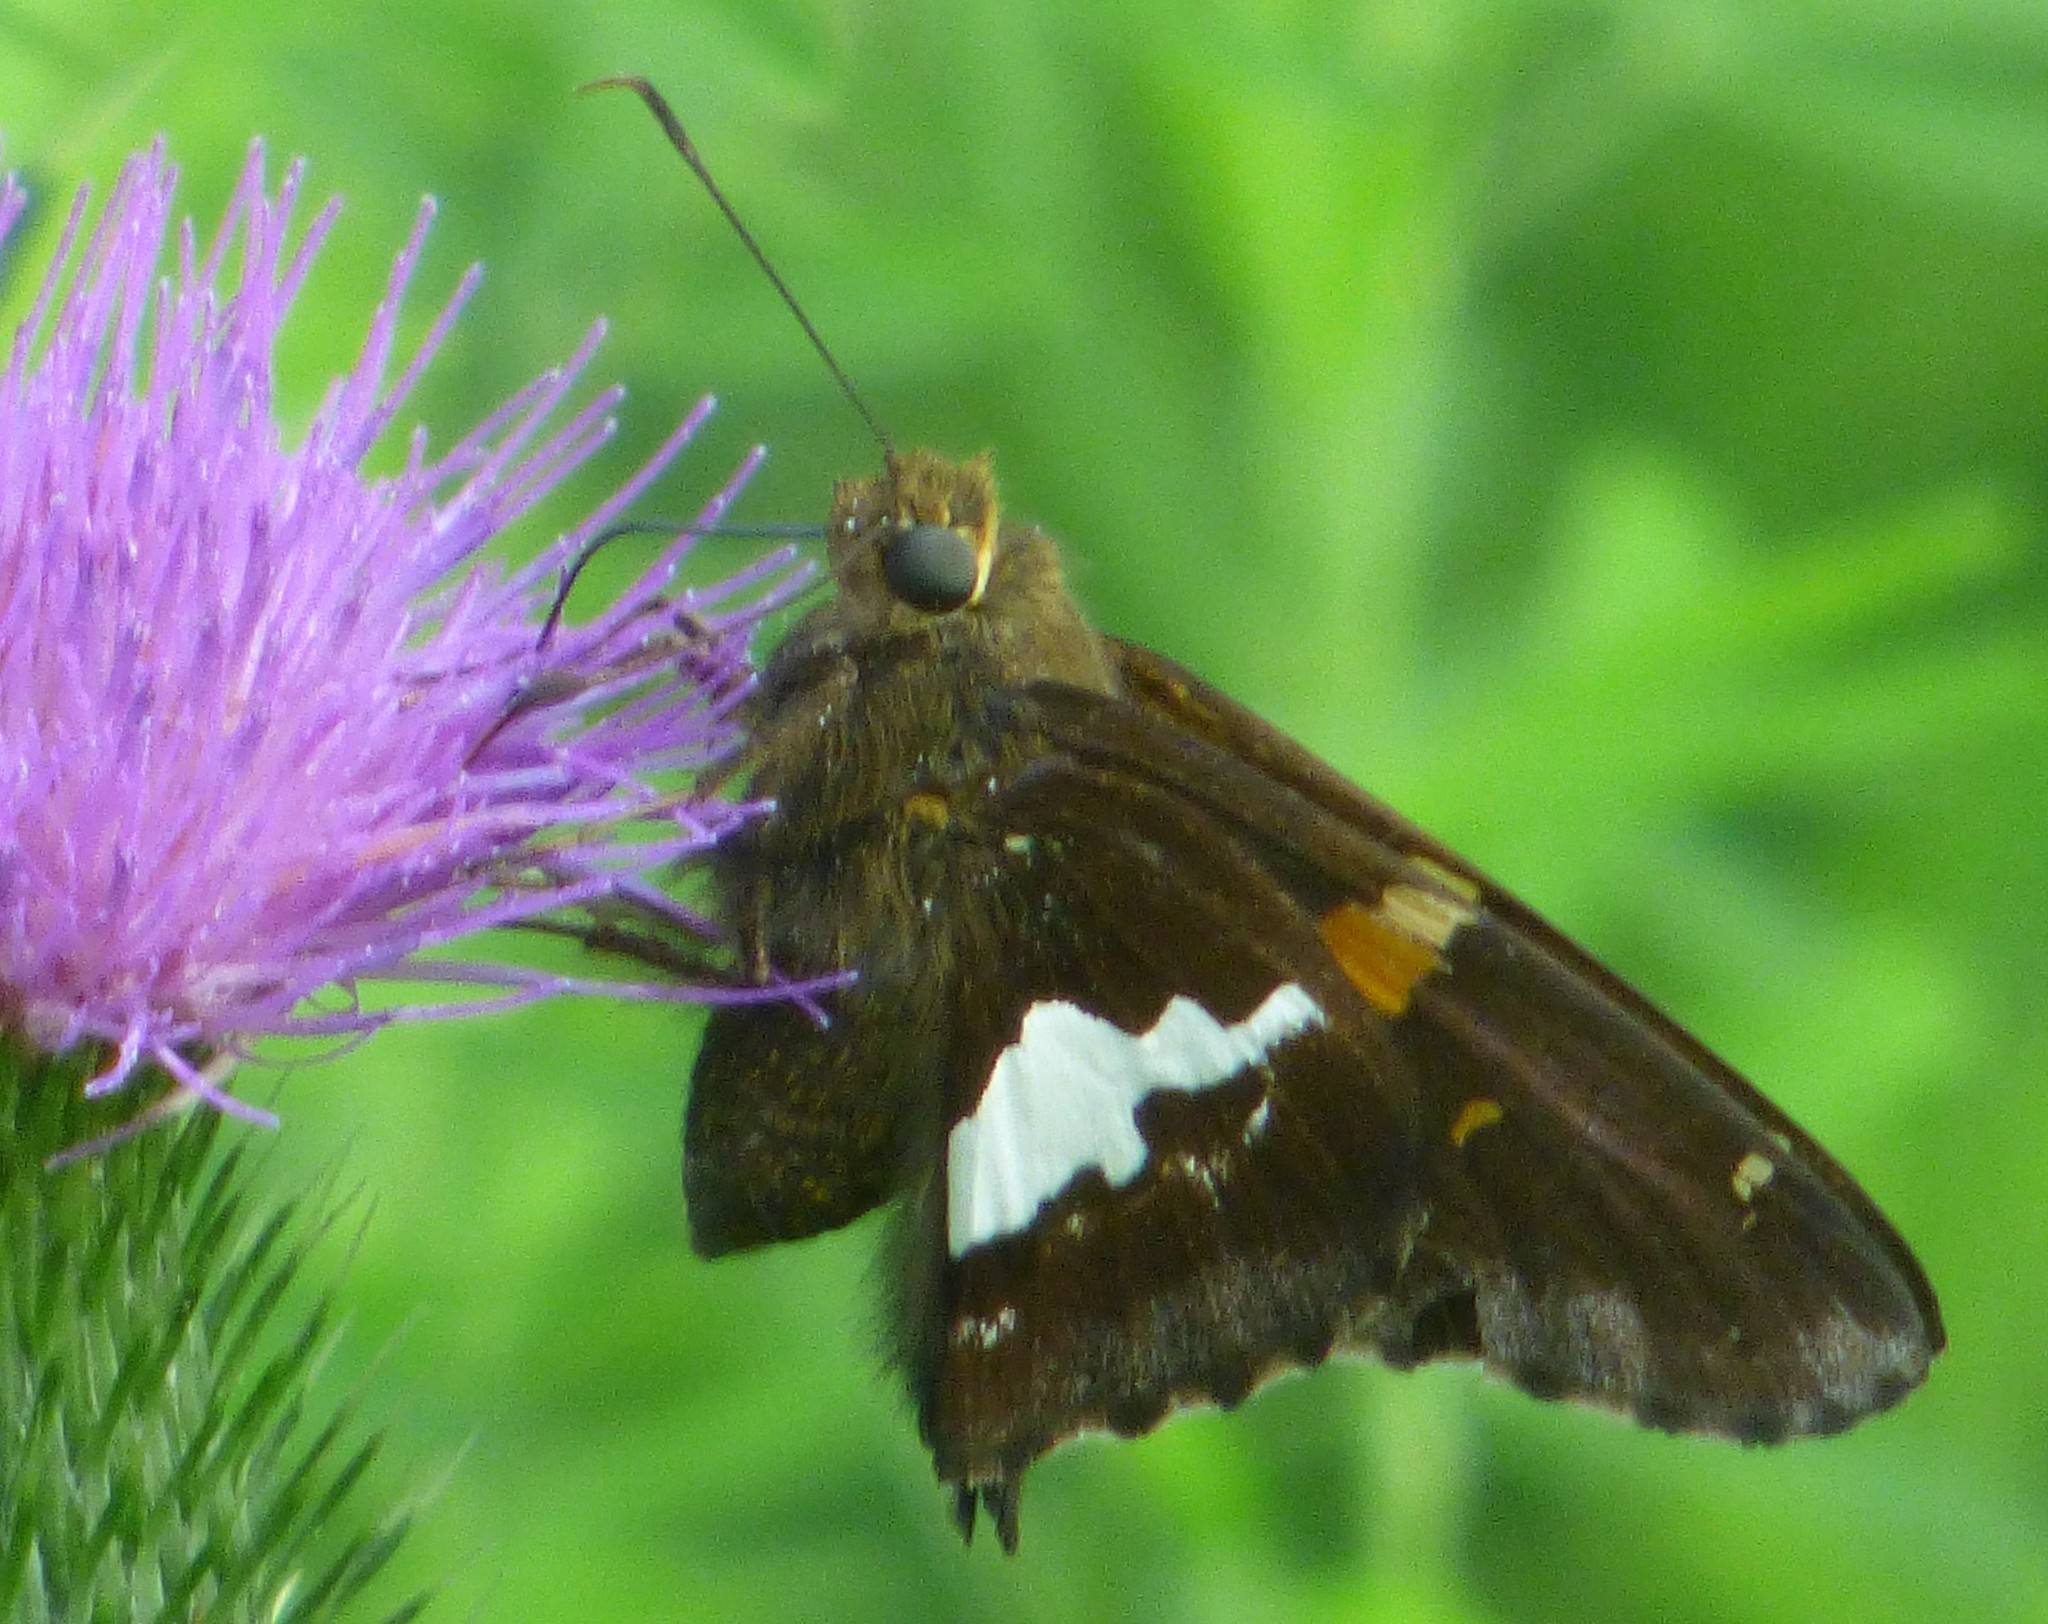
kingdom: Animalia
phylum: Arthropoda
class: Insecta
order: Lepidoptera
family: Hesperiidae
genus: Epargyreus
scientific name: Epargyreus clarus
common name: Silver-spotted skipper
